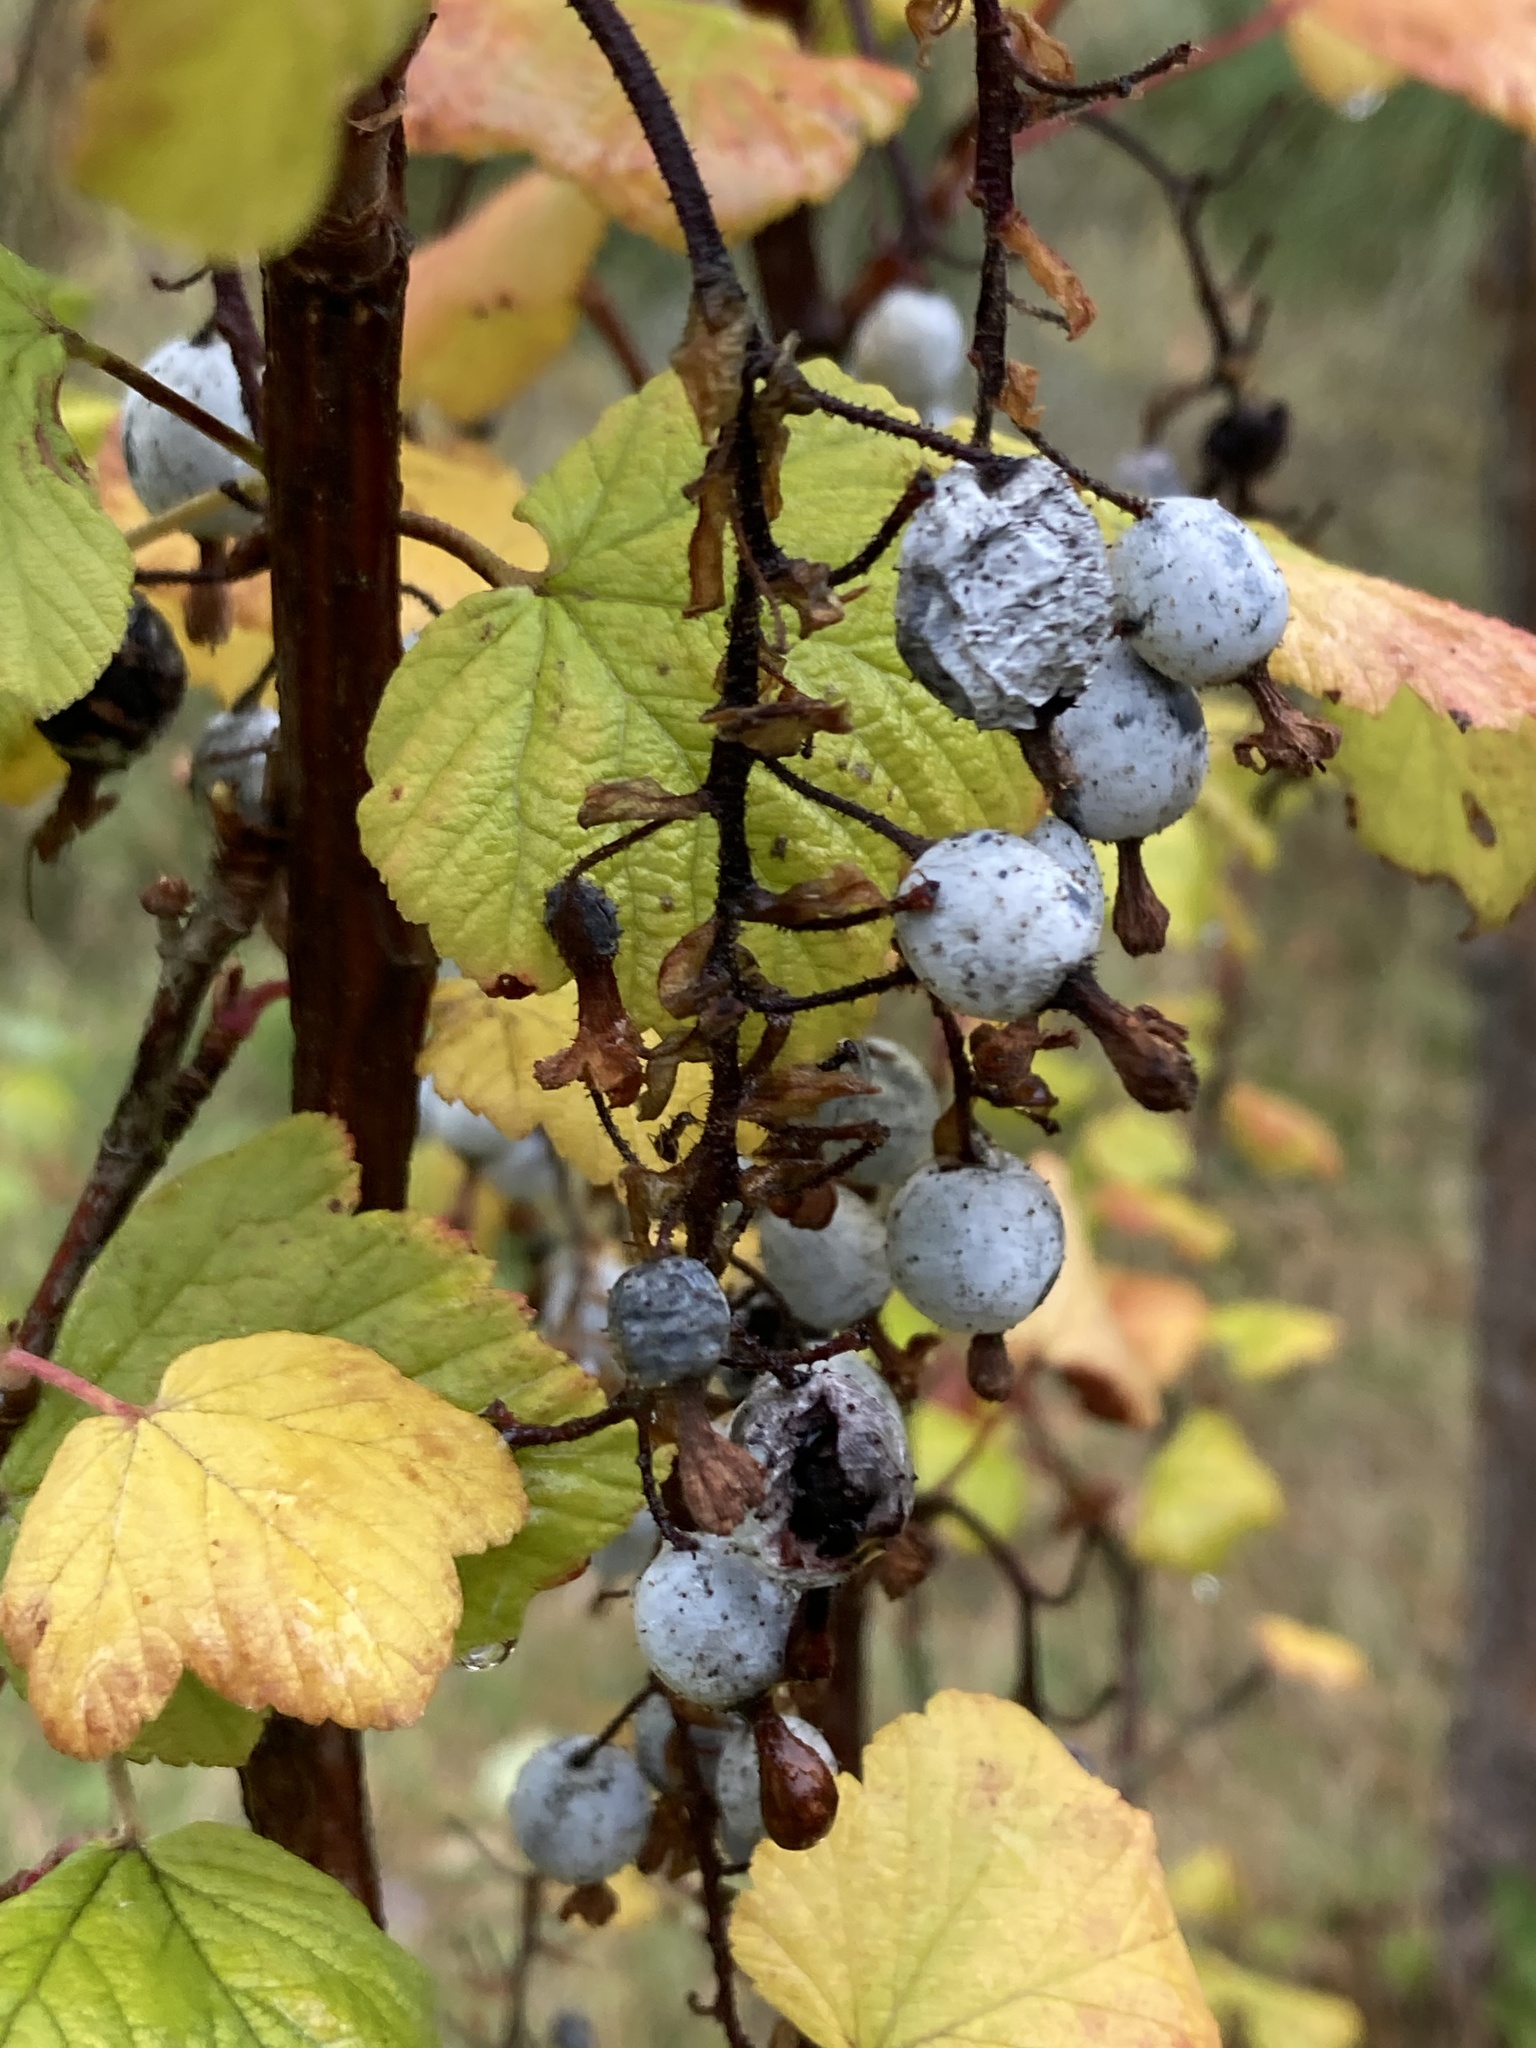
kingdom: Plantae
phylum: Tracheophyta
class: Magnoliopsida
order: Saxifragales
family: Grossulariaceae
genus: Ribes
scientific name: Ribes sanguineum
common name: Flowering currant
